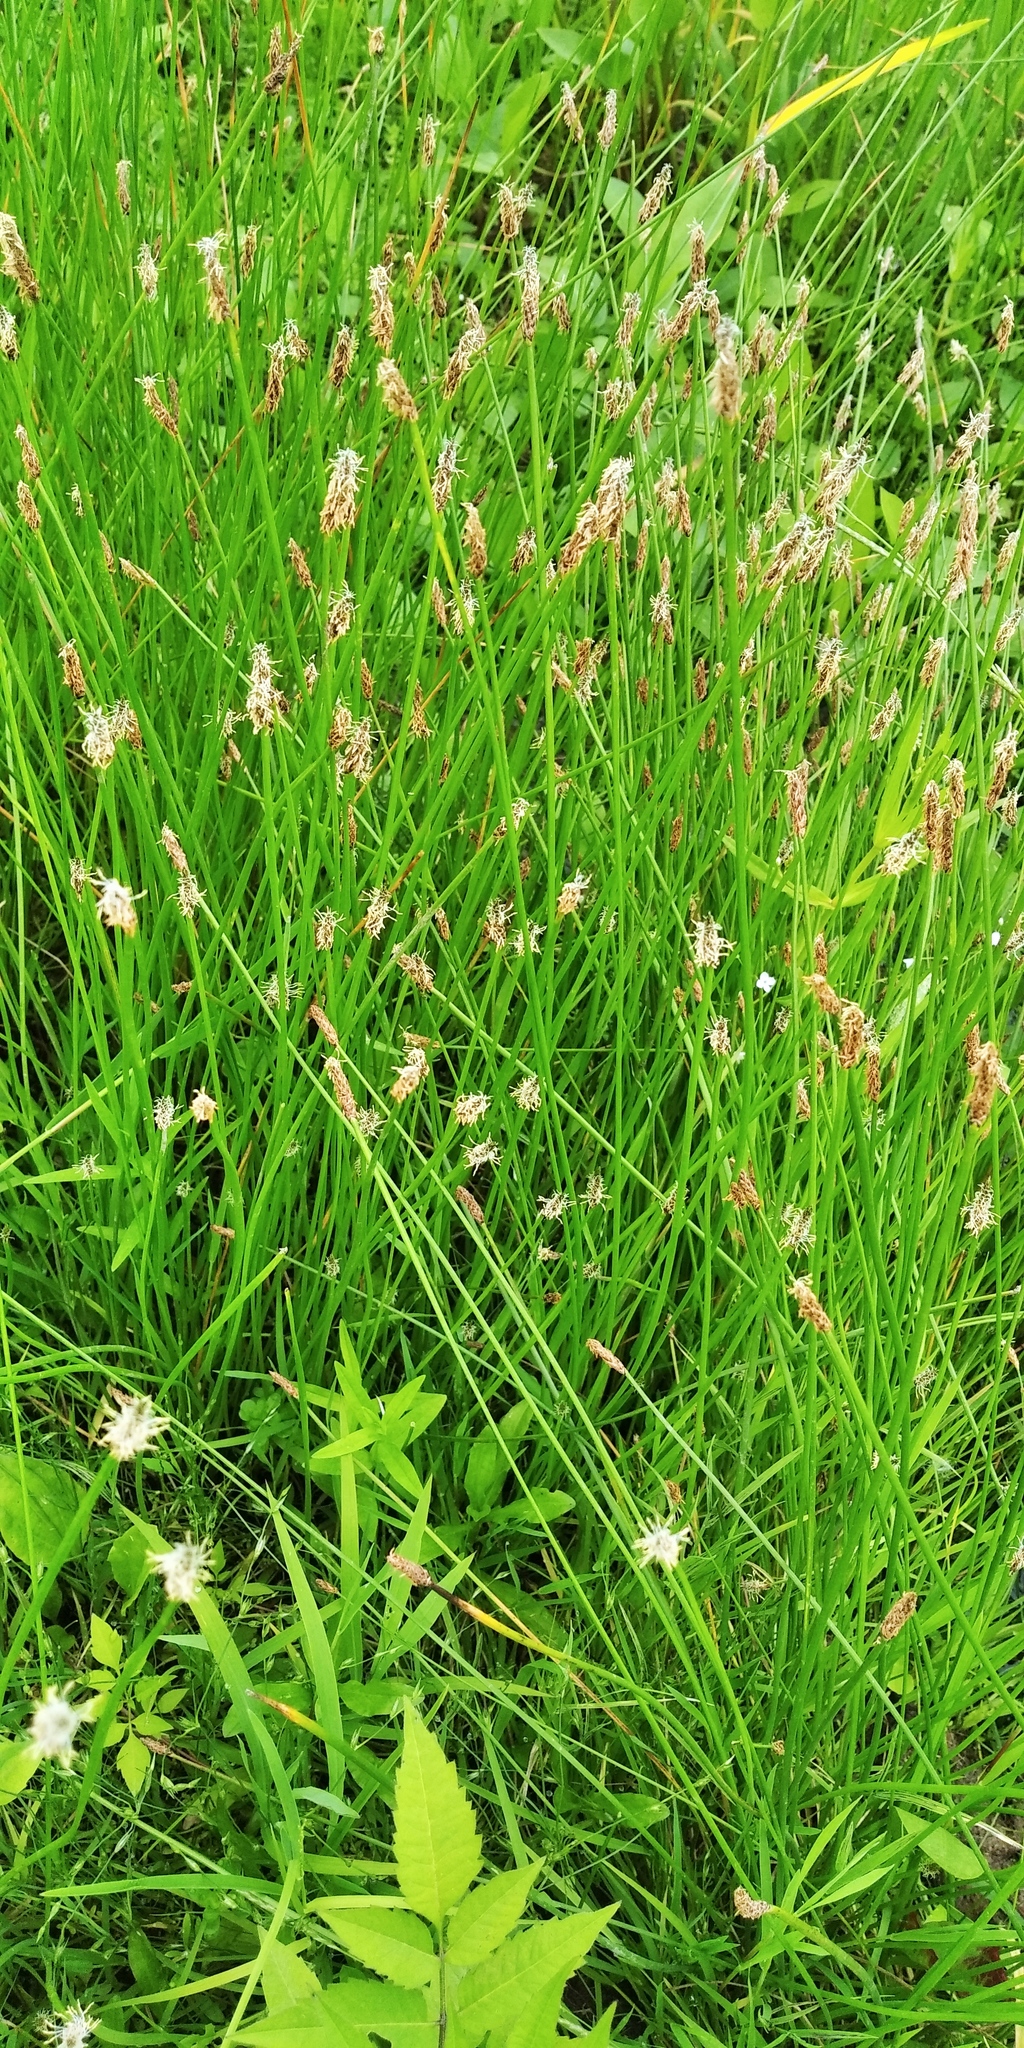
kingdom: Plantae
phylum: Tracheophyta
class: Liliopsida
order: Poales
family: Cyperaceae
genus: Eleocharis
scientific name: Eleocharis palustris
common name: Common spike-rush
